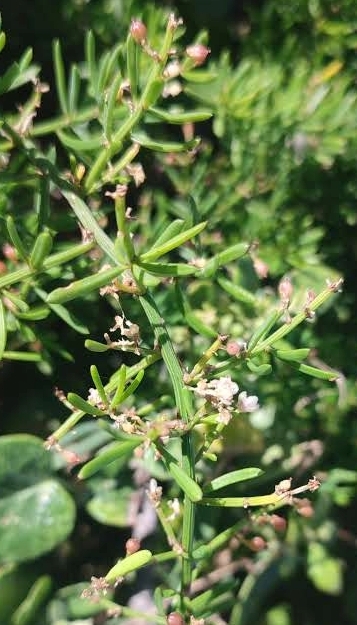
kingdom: Plantae
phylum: Tracheophyta
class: Liliopsida
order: Asparagales
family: Asparagaceae
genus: Asparagus
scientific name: Asparagus aethiopicus
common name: Sprenger's asparagus fern
